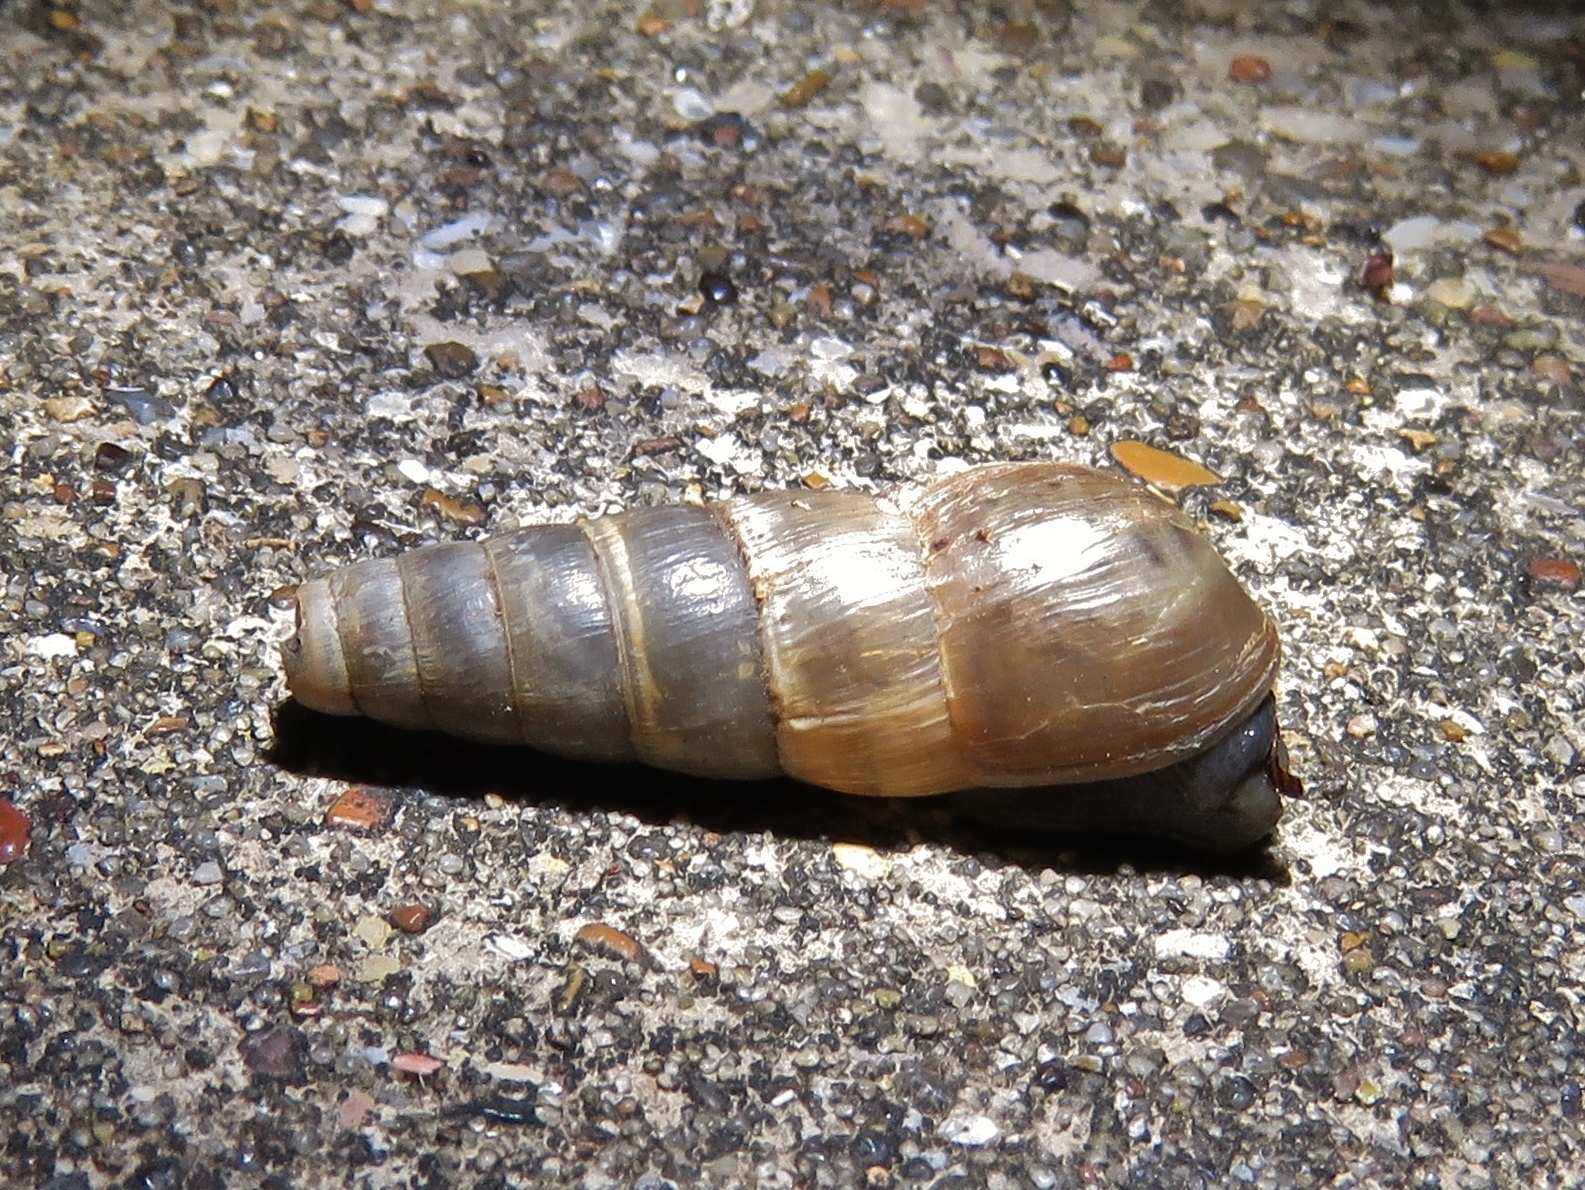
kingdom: Animalia
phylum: Mollusca
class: Gastropoda
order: Stylommatophora
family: Achatinidae
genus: Rumina
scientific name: Rumina decollata
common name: Decollate snail
